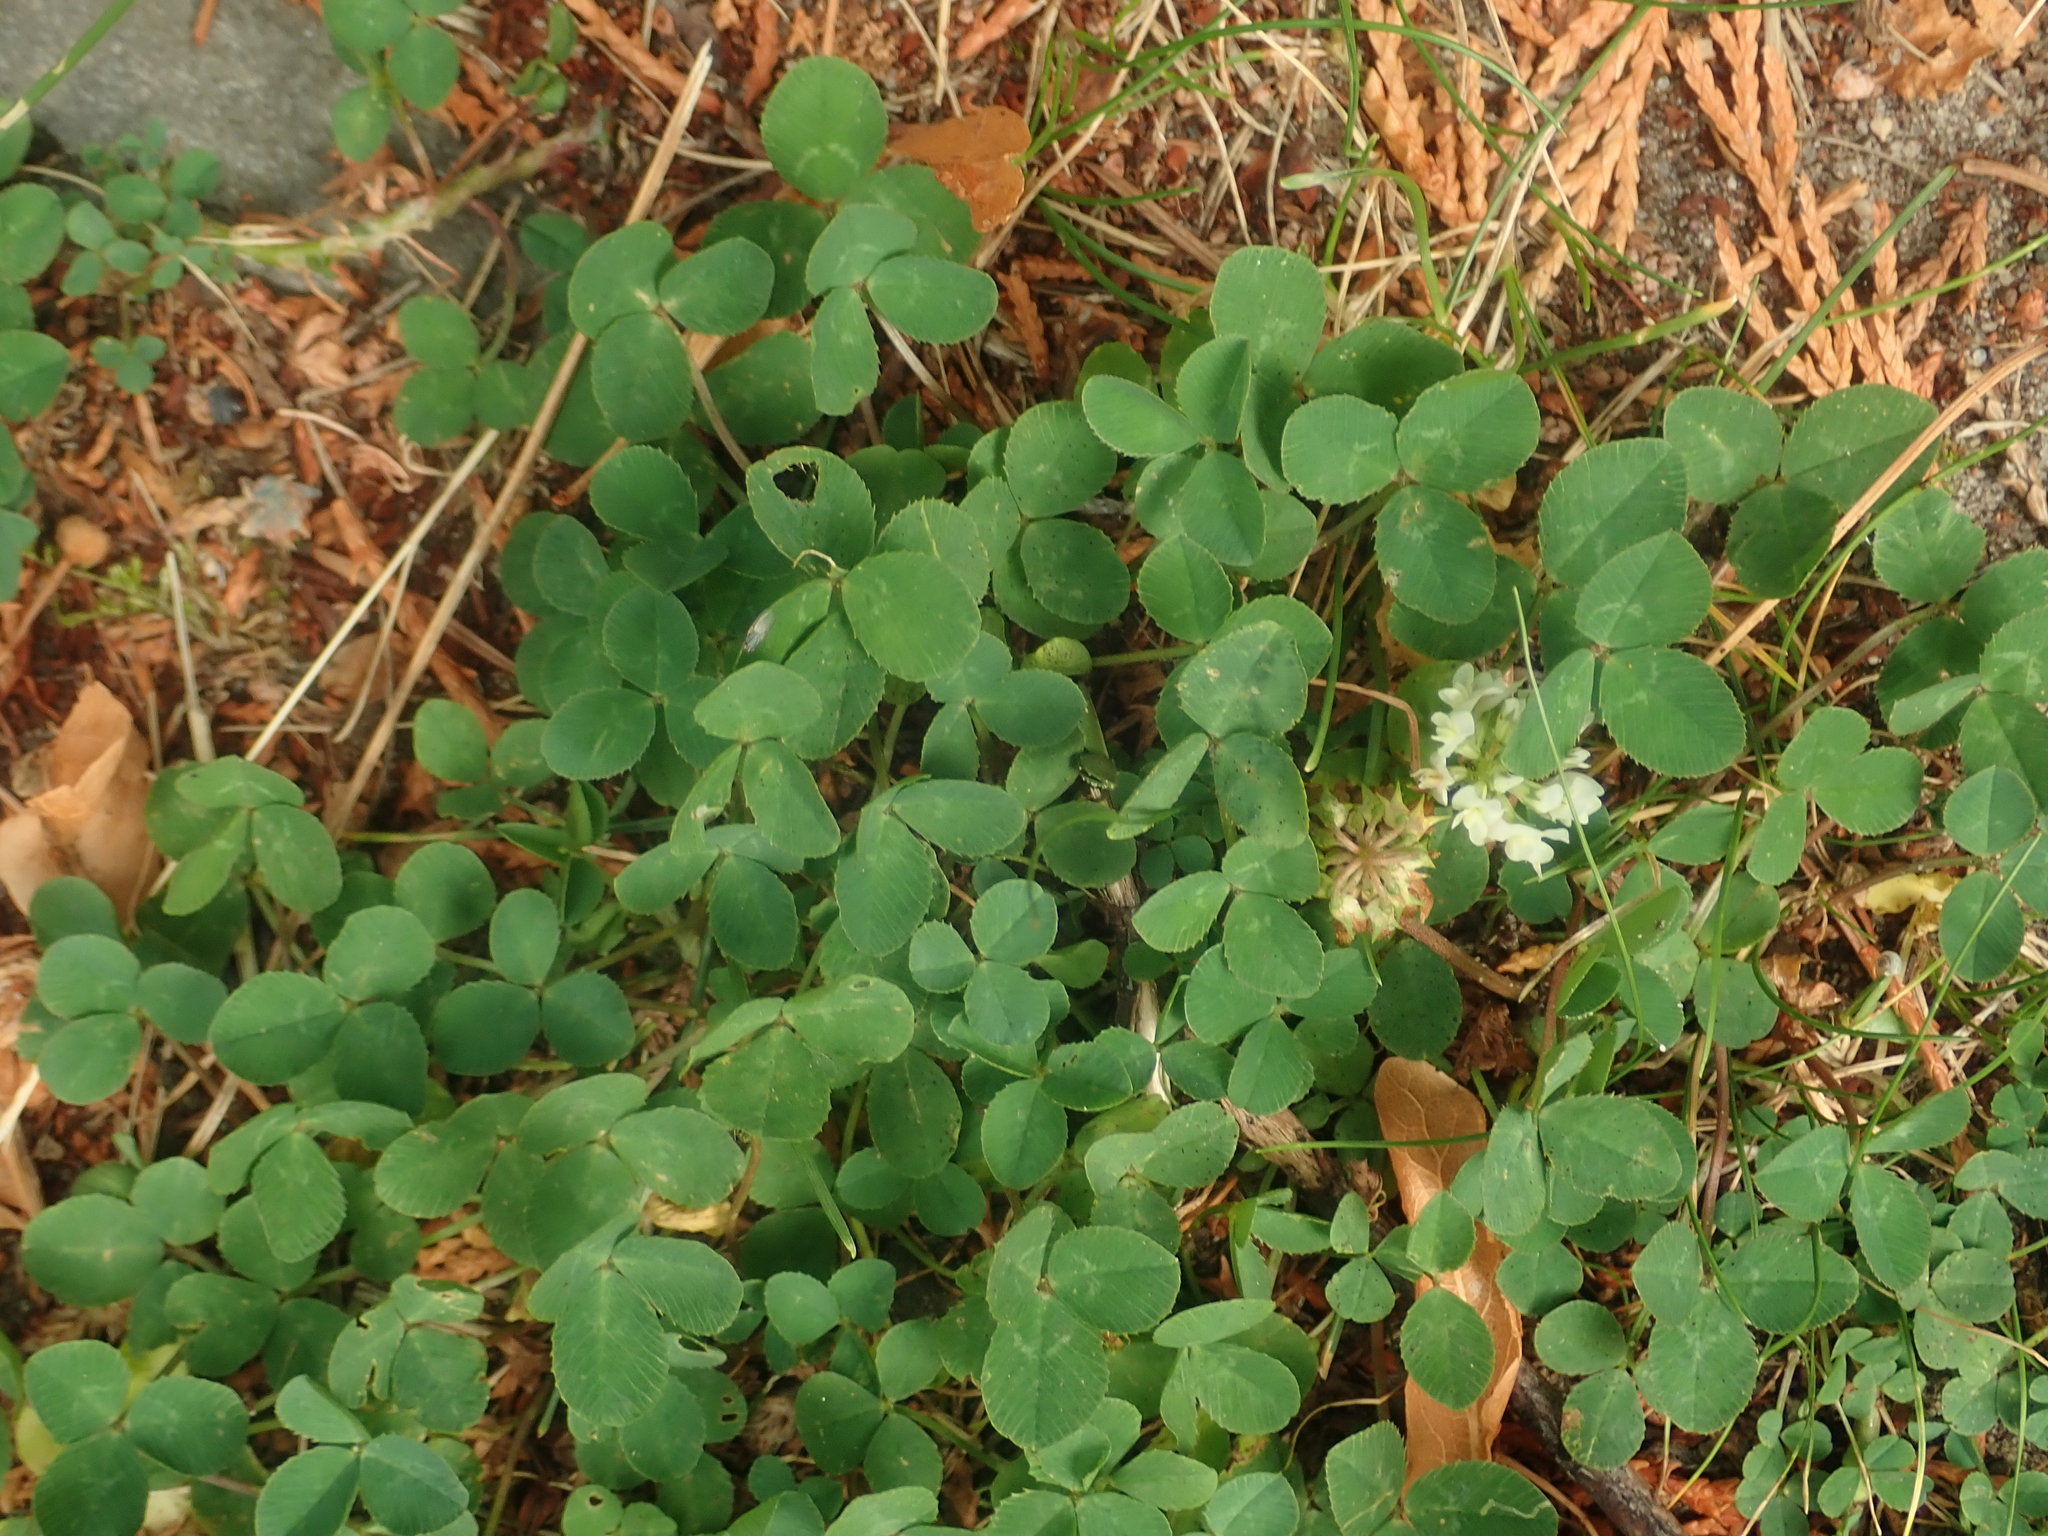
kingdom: Plantae
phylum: Tracheophyta
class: Magnoliopsida
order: Fabales
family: Fabaceae
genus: Trifolium
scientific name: Trifolium repens
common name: White clover
